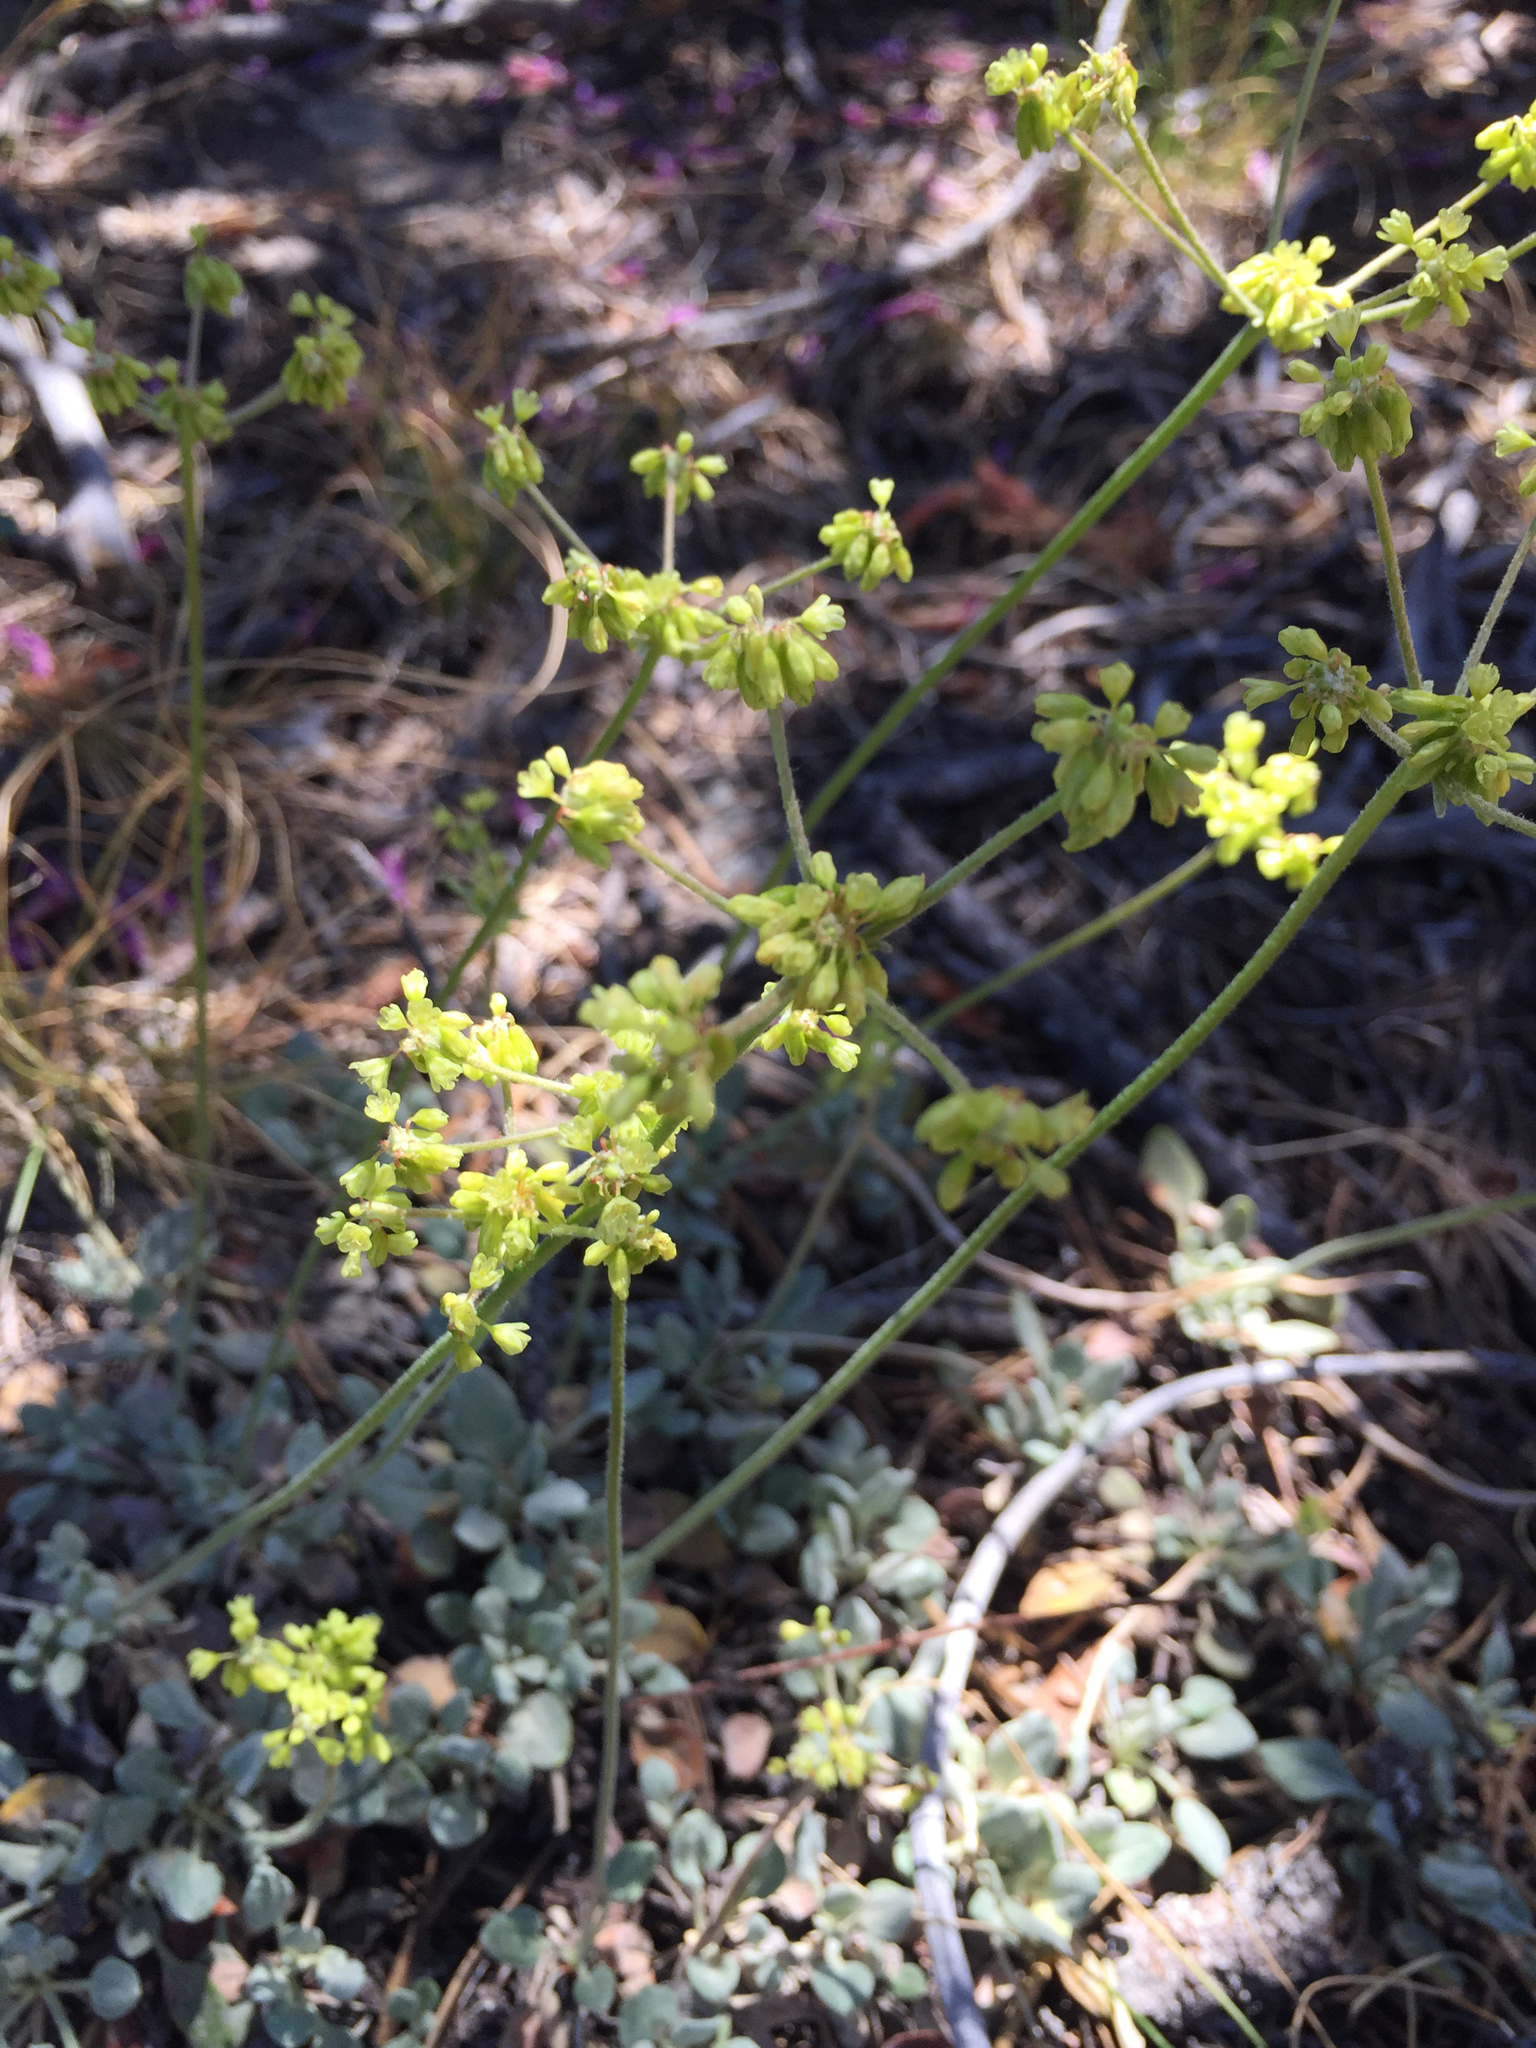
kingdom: Plantae
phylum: Tracheophyta
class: Magnoliopsida
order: Caryophyllales
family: Polygonaceae
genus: Eriogonum
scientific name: Eriogonum marifolium
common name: Marum-leaf wild buckwheat
